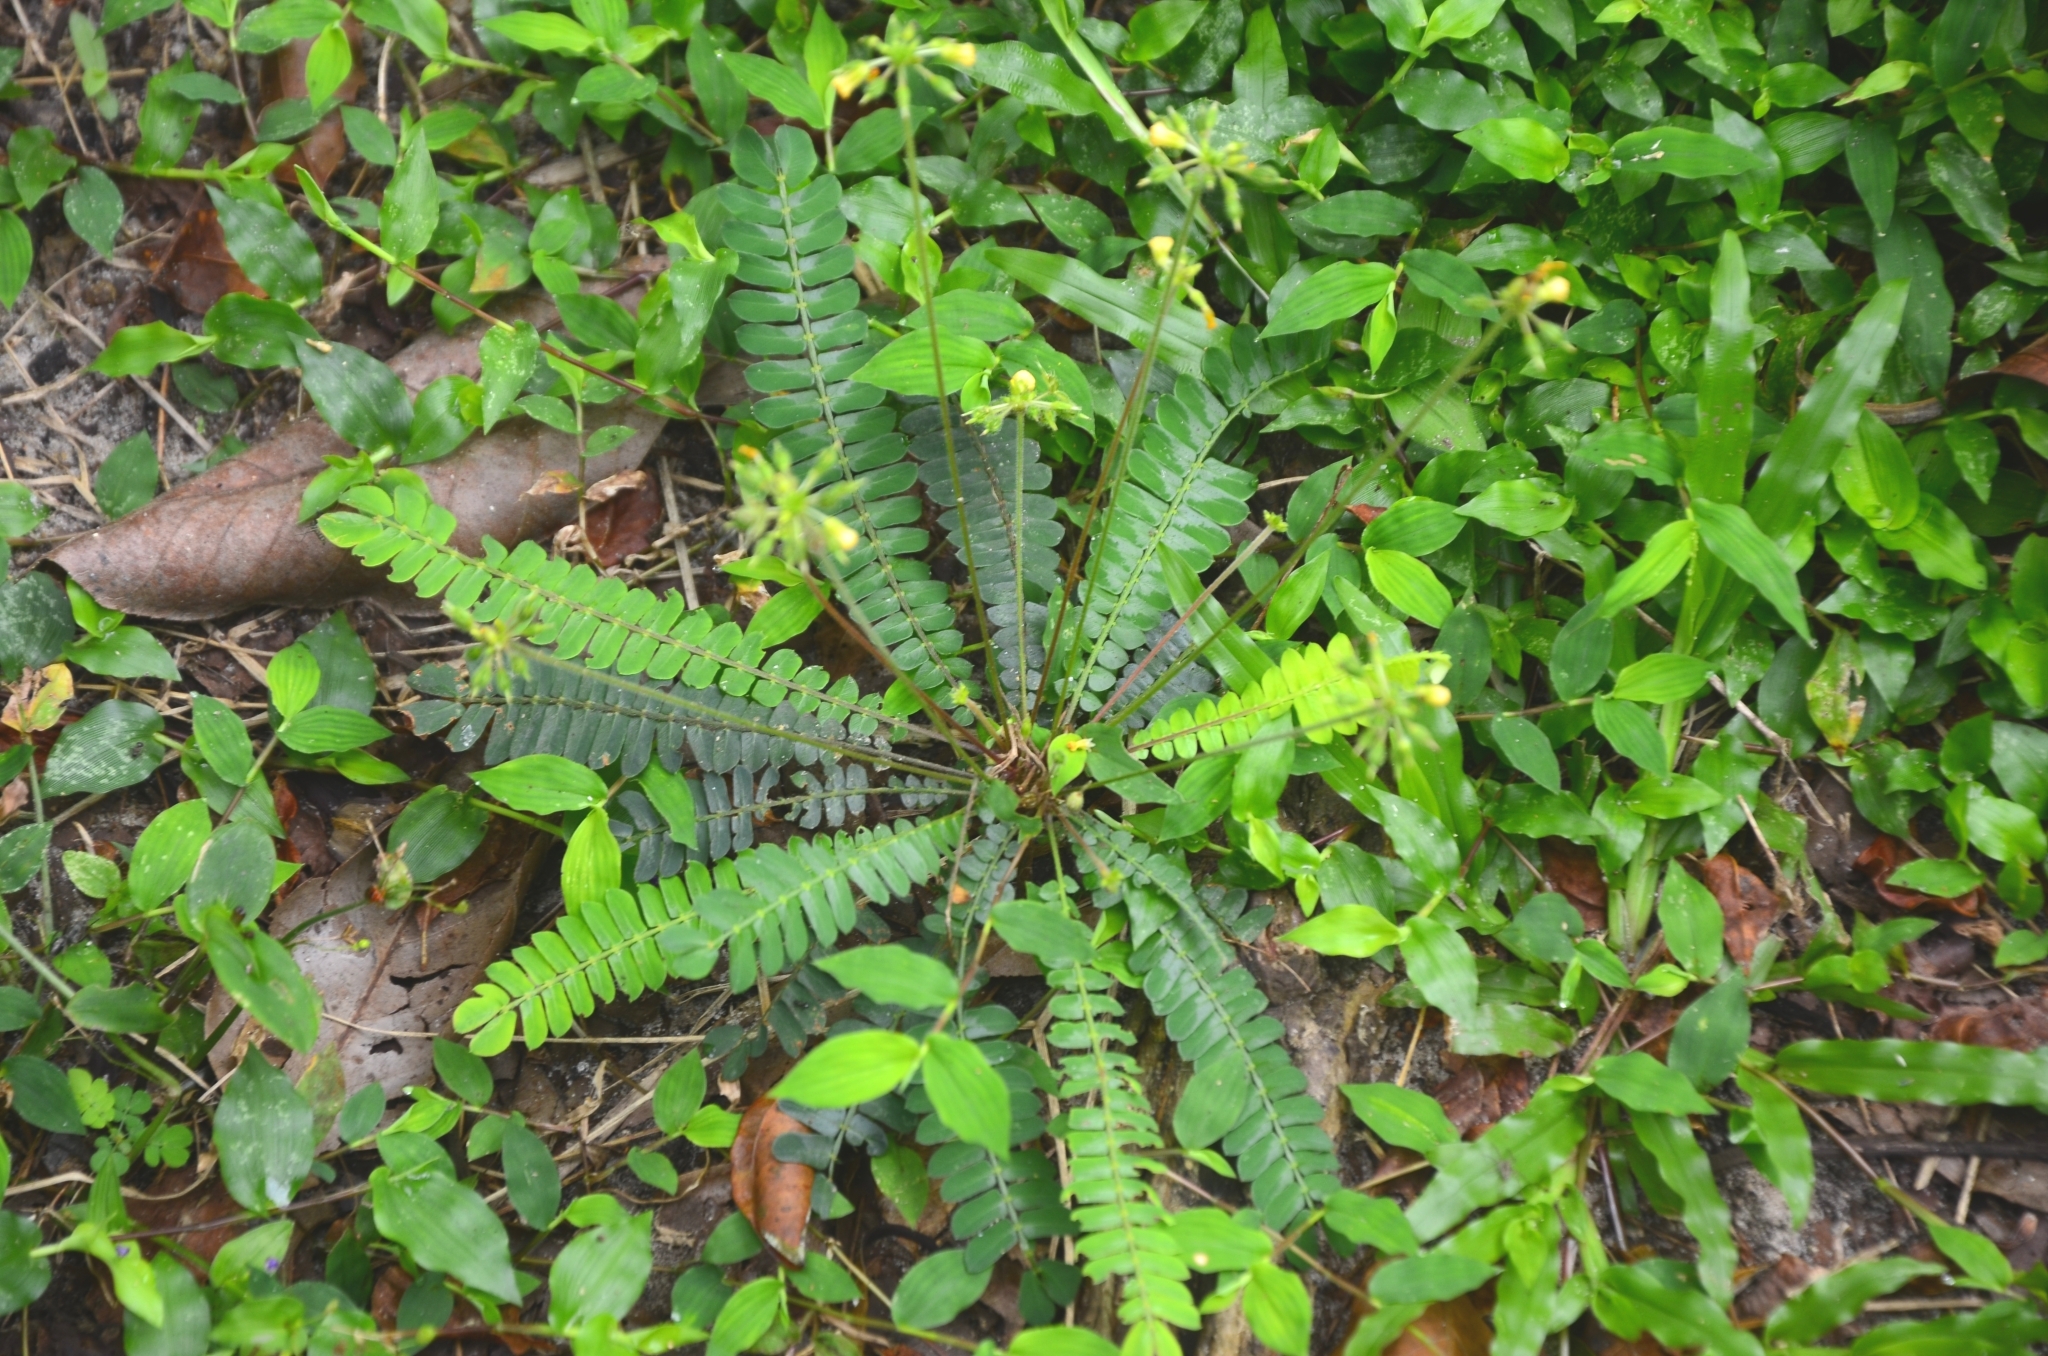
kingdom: Plantae
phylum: Tracheophyta
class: Magnoliopsida
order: Oxalidales
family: Oxalidaceae
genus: Biophytum
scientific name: Biophytum sensitivum
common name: Lifeplant
